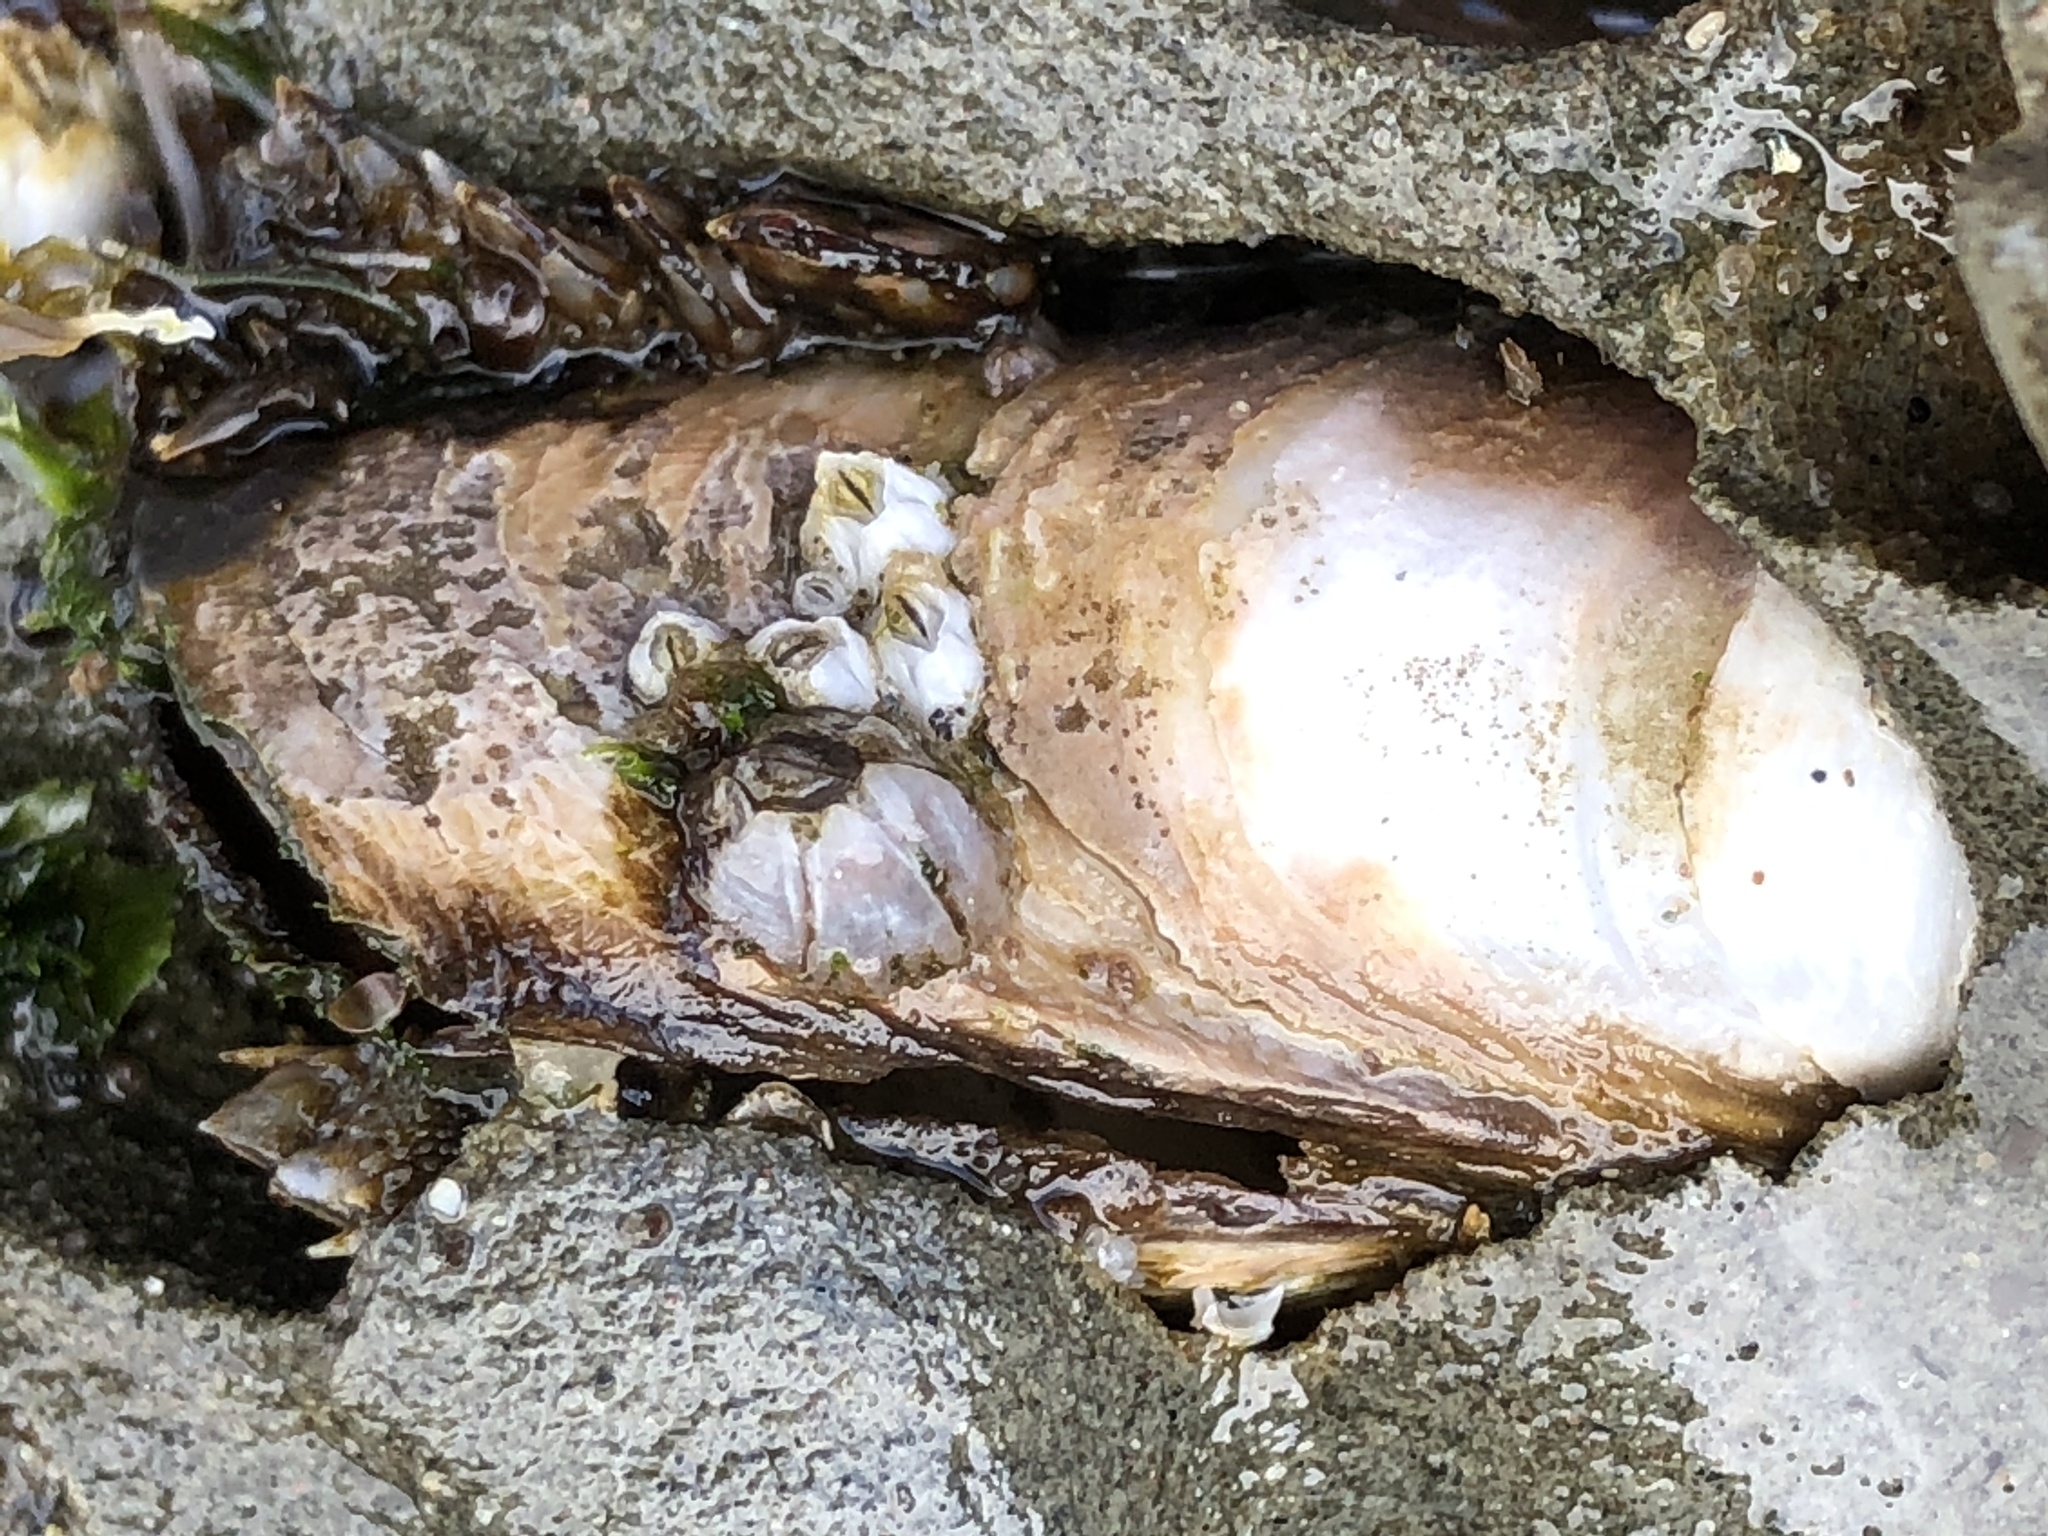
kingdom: Animalia
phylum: Mollusca
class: Bivalvia
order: Myida
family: Pholadidae
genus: Parapholas
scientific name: Parapholas californica
